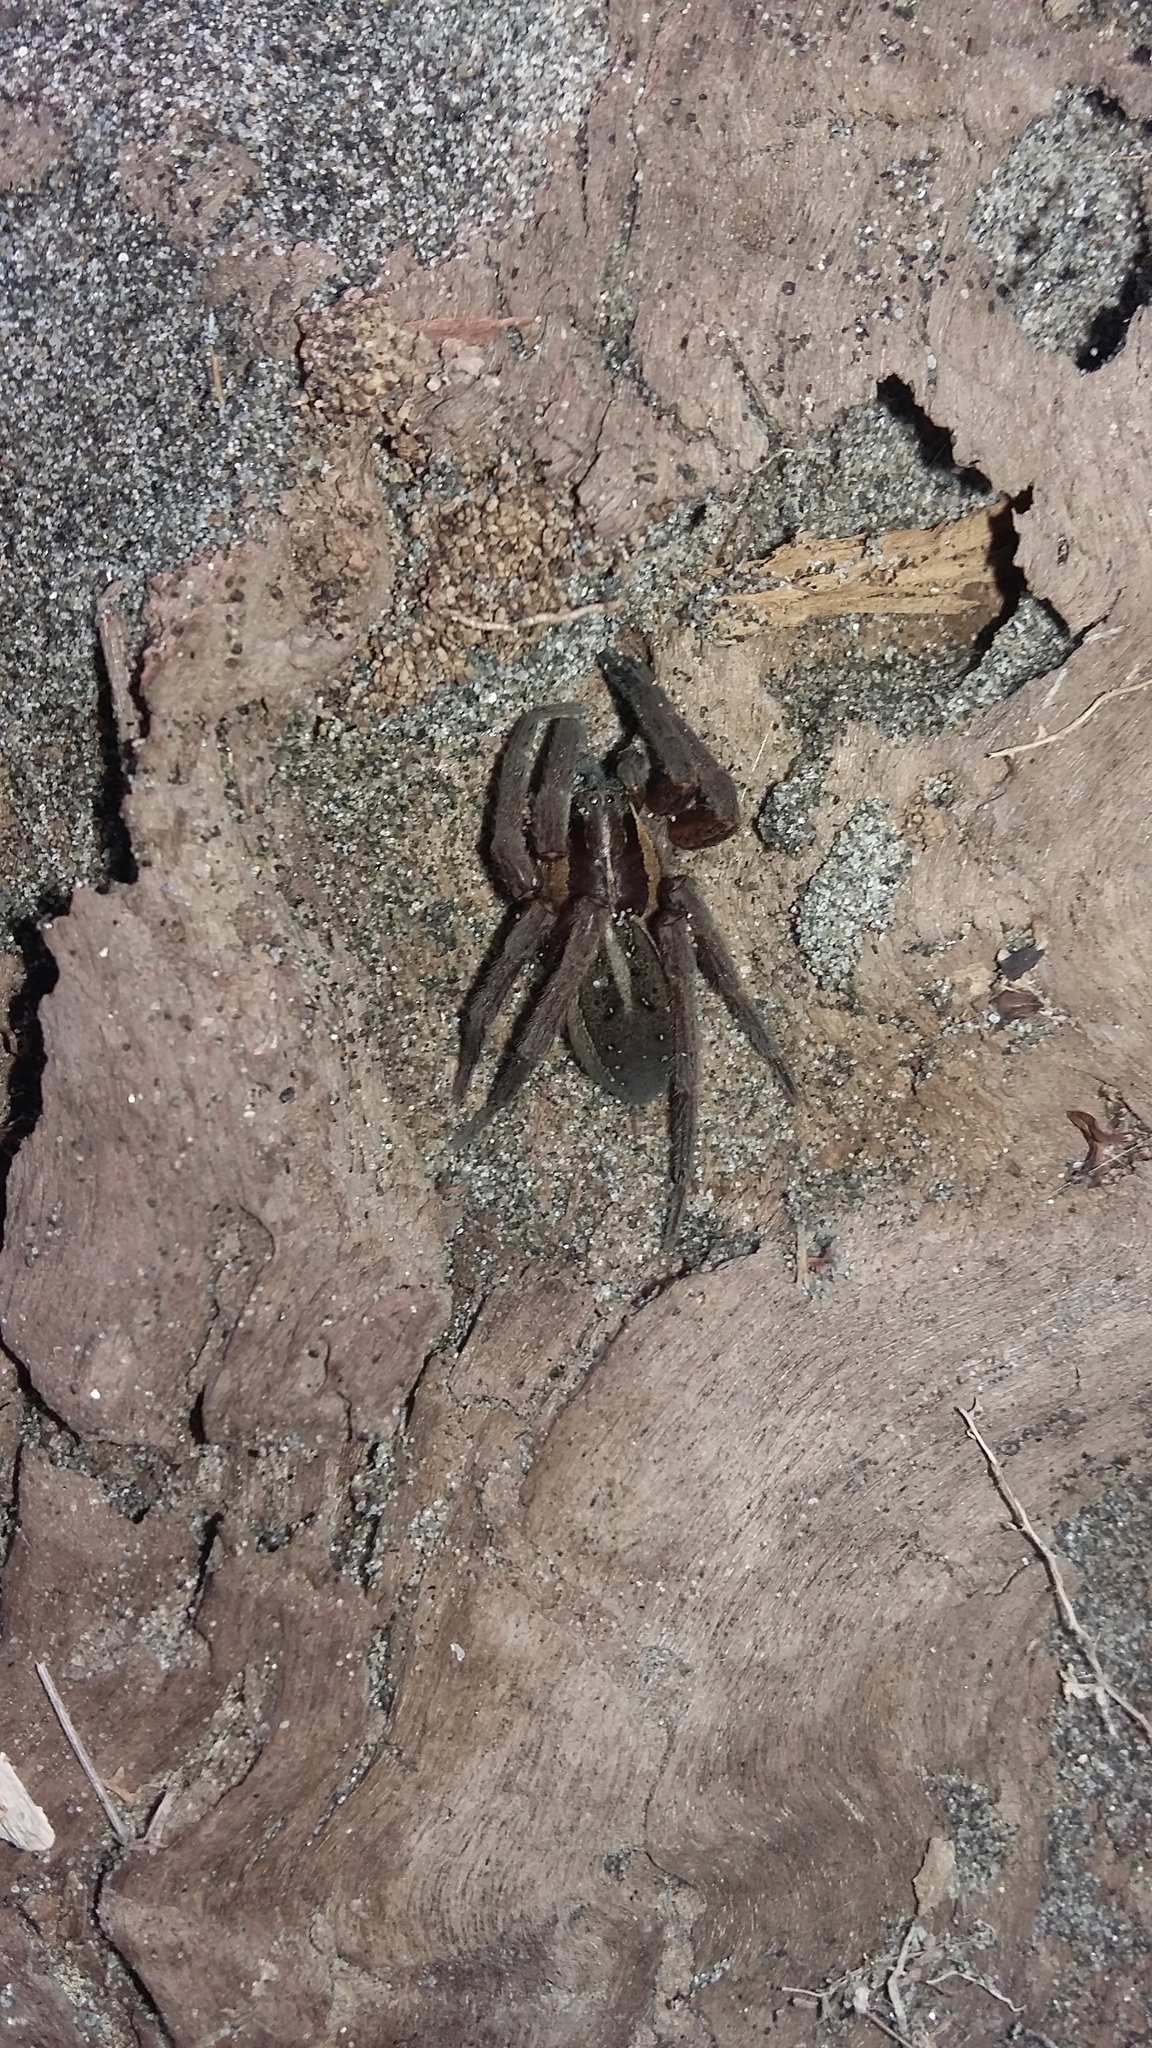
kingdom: Animalia
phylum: Arthropoda
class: Arachnida
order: Araneae
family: Pisauridae
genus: Dolomedes
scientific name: Dolomedes minor
